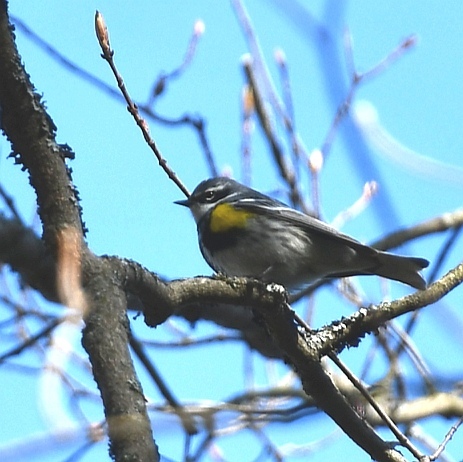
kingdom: Animalia
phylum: Chordata
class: Aves
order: Passeriformes
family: Parulidae
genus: Setophaga
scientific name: Setophaga coronata
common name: Myrtle warbler
